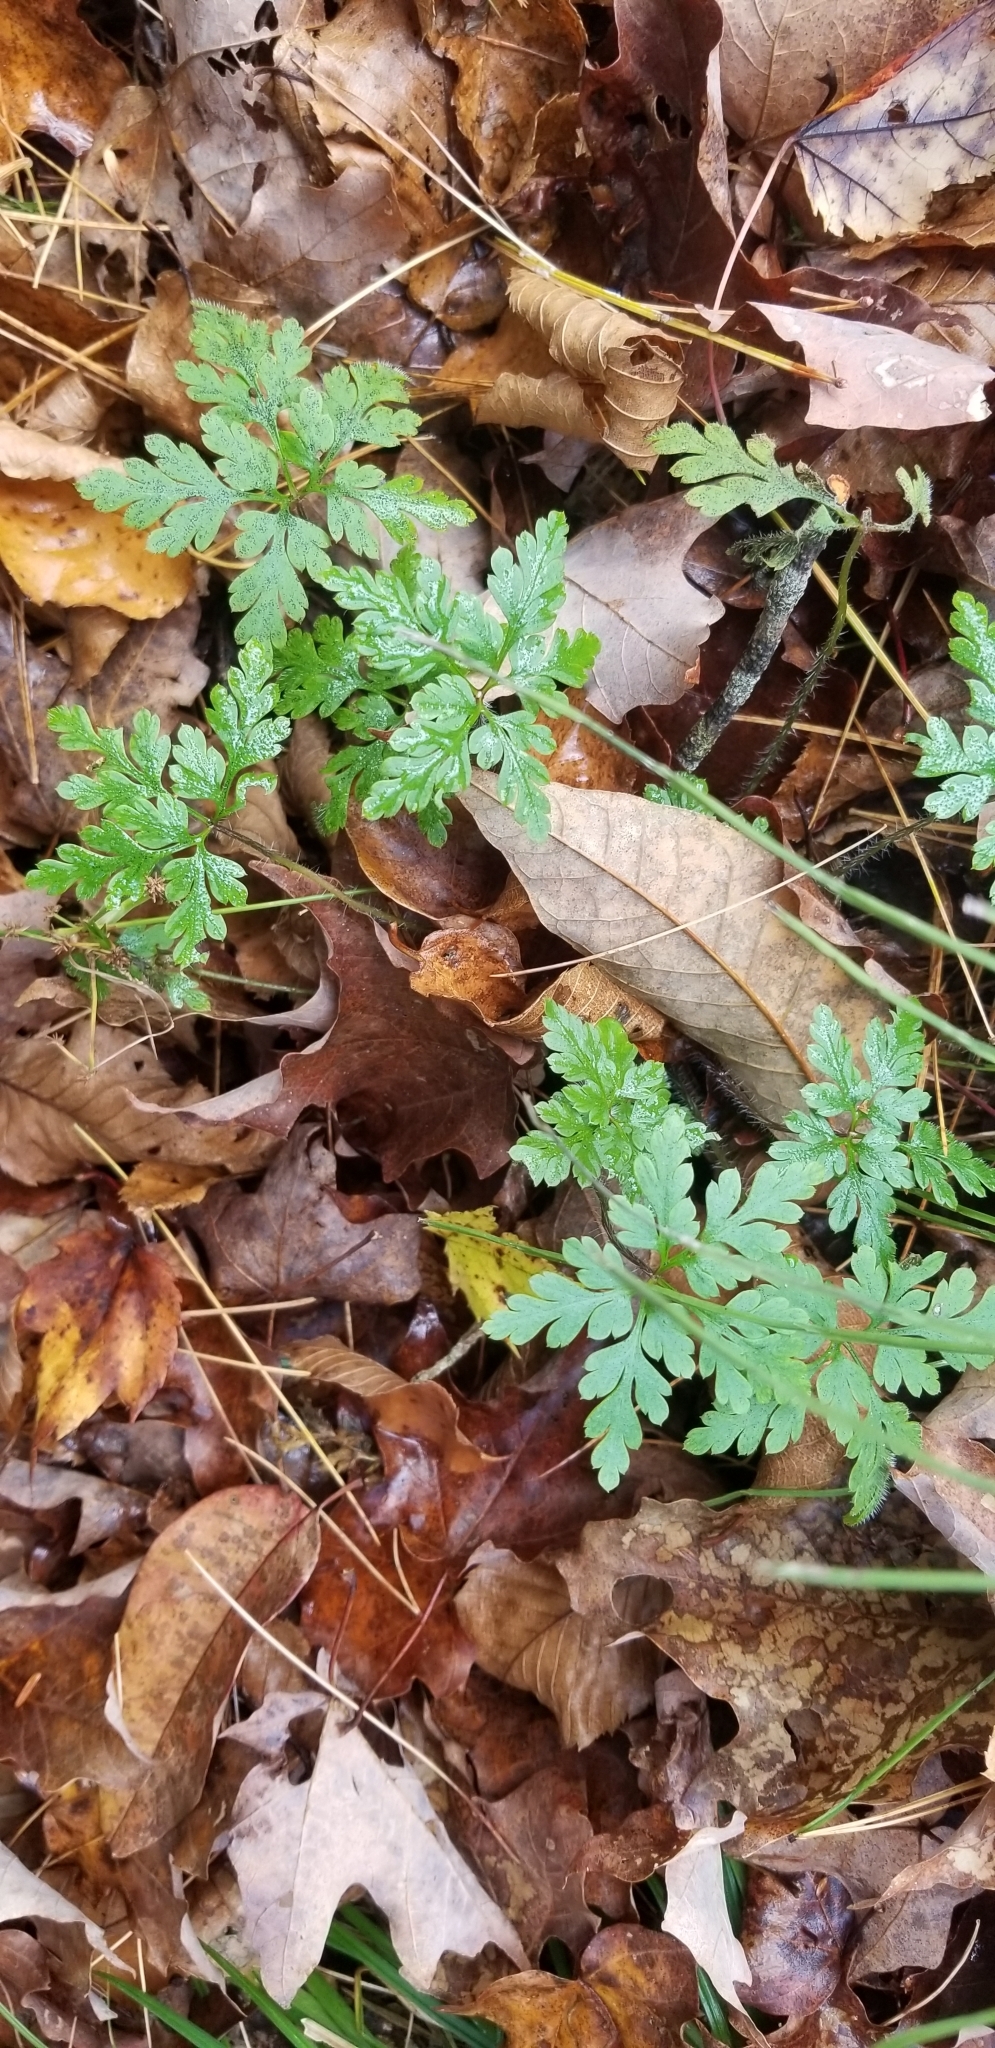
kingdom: Plantae
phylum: Tracheophyta
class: Magnoliopsida
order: Geraniales
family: Geraniaceae
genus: Geranium
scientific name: Geranium robertianum
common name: Herb-robert
